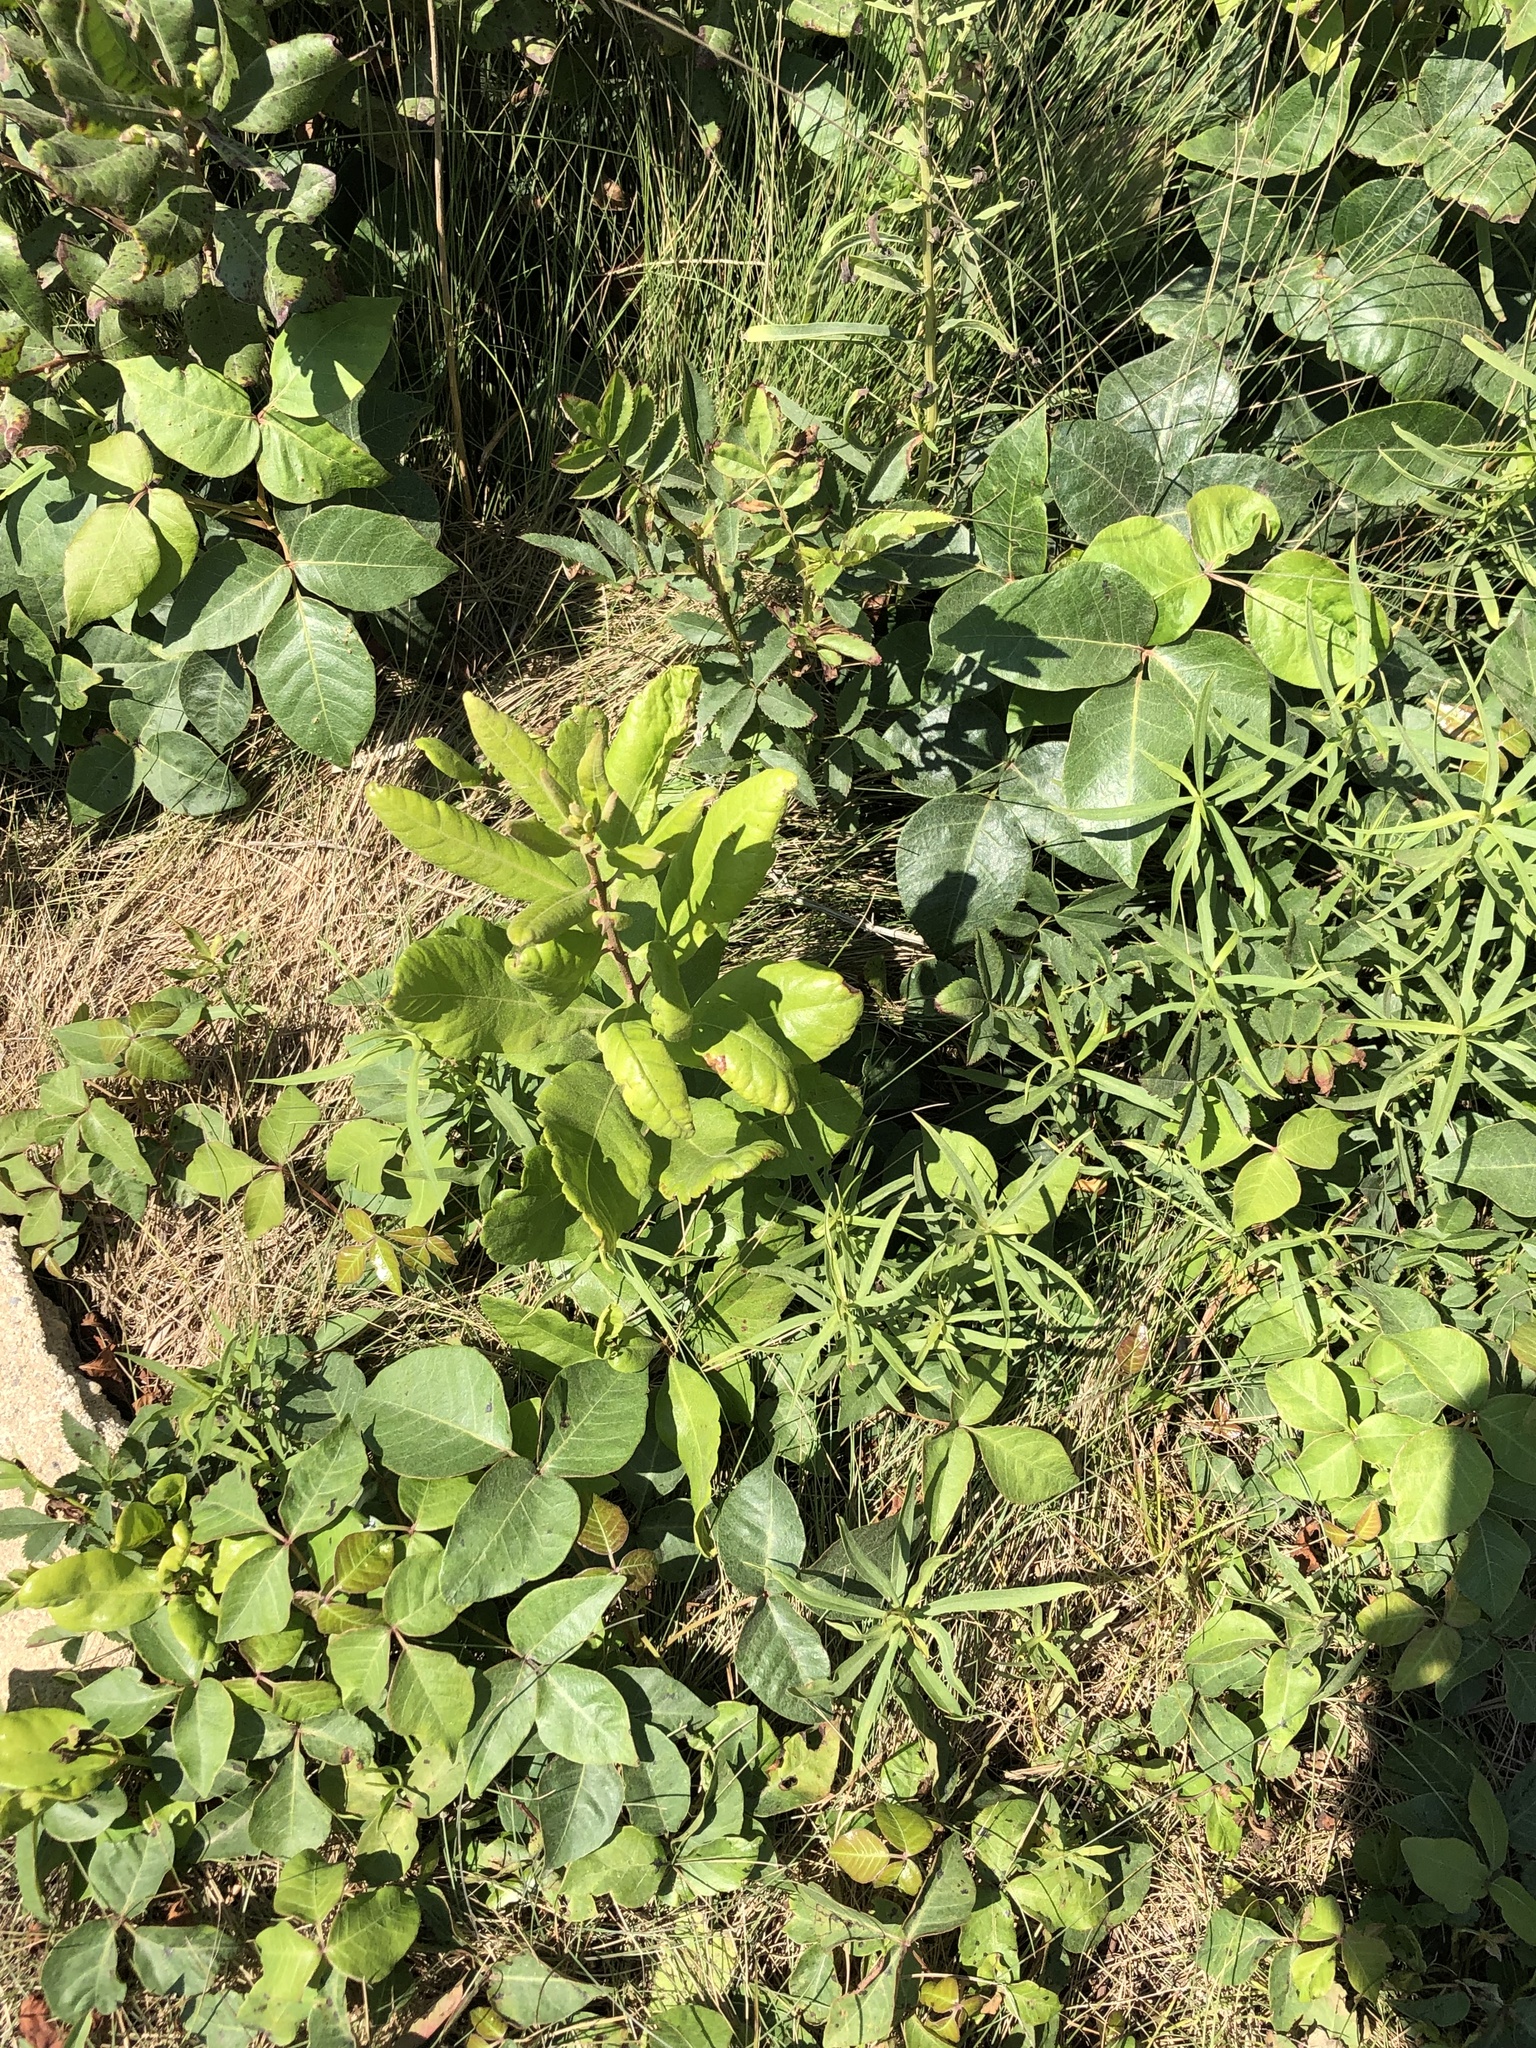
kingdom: Plantae
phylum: Tracheophyta
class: Magnoliopsida
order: Fagales
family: Myricaceae
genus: Morella
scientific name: Morella pensylvanica
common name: Northern bayberry
